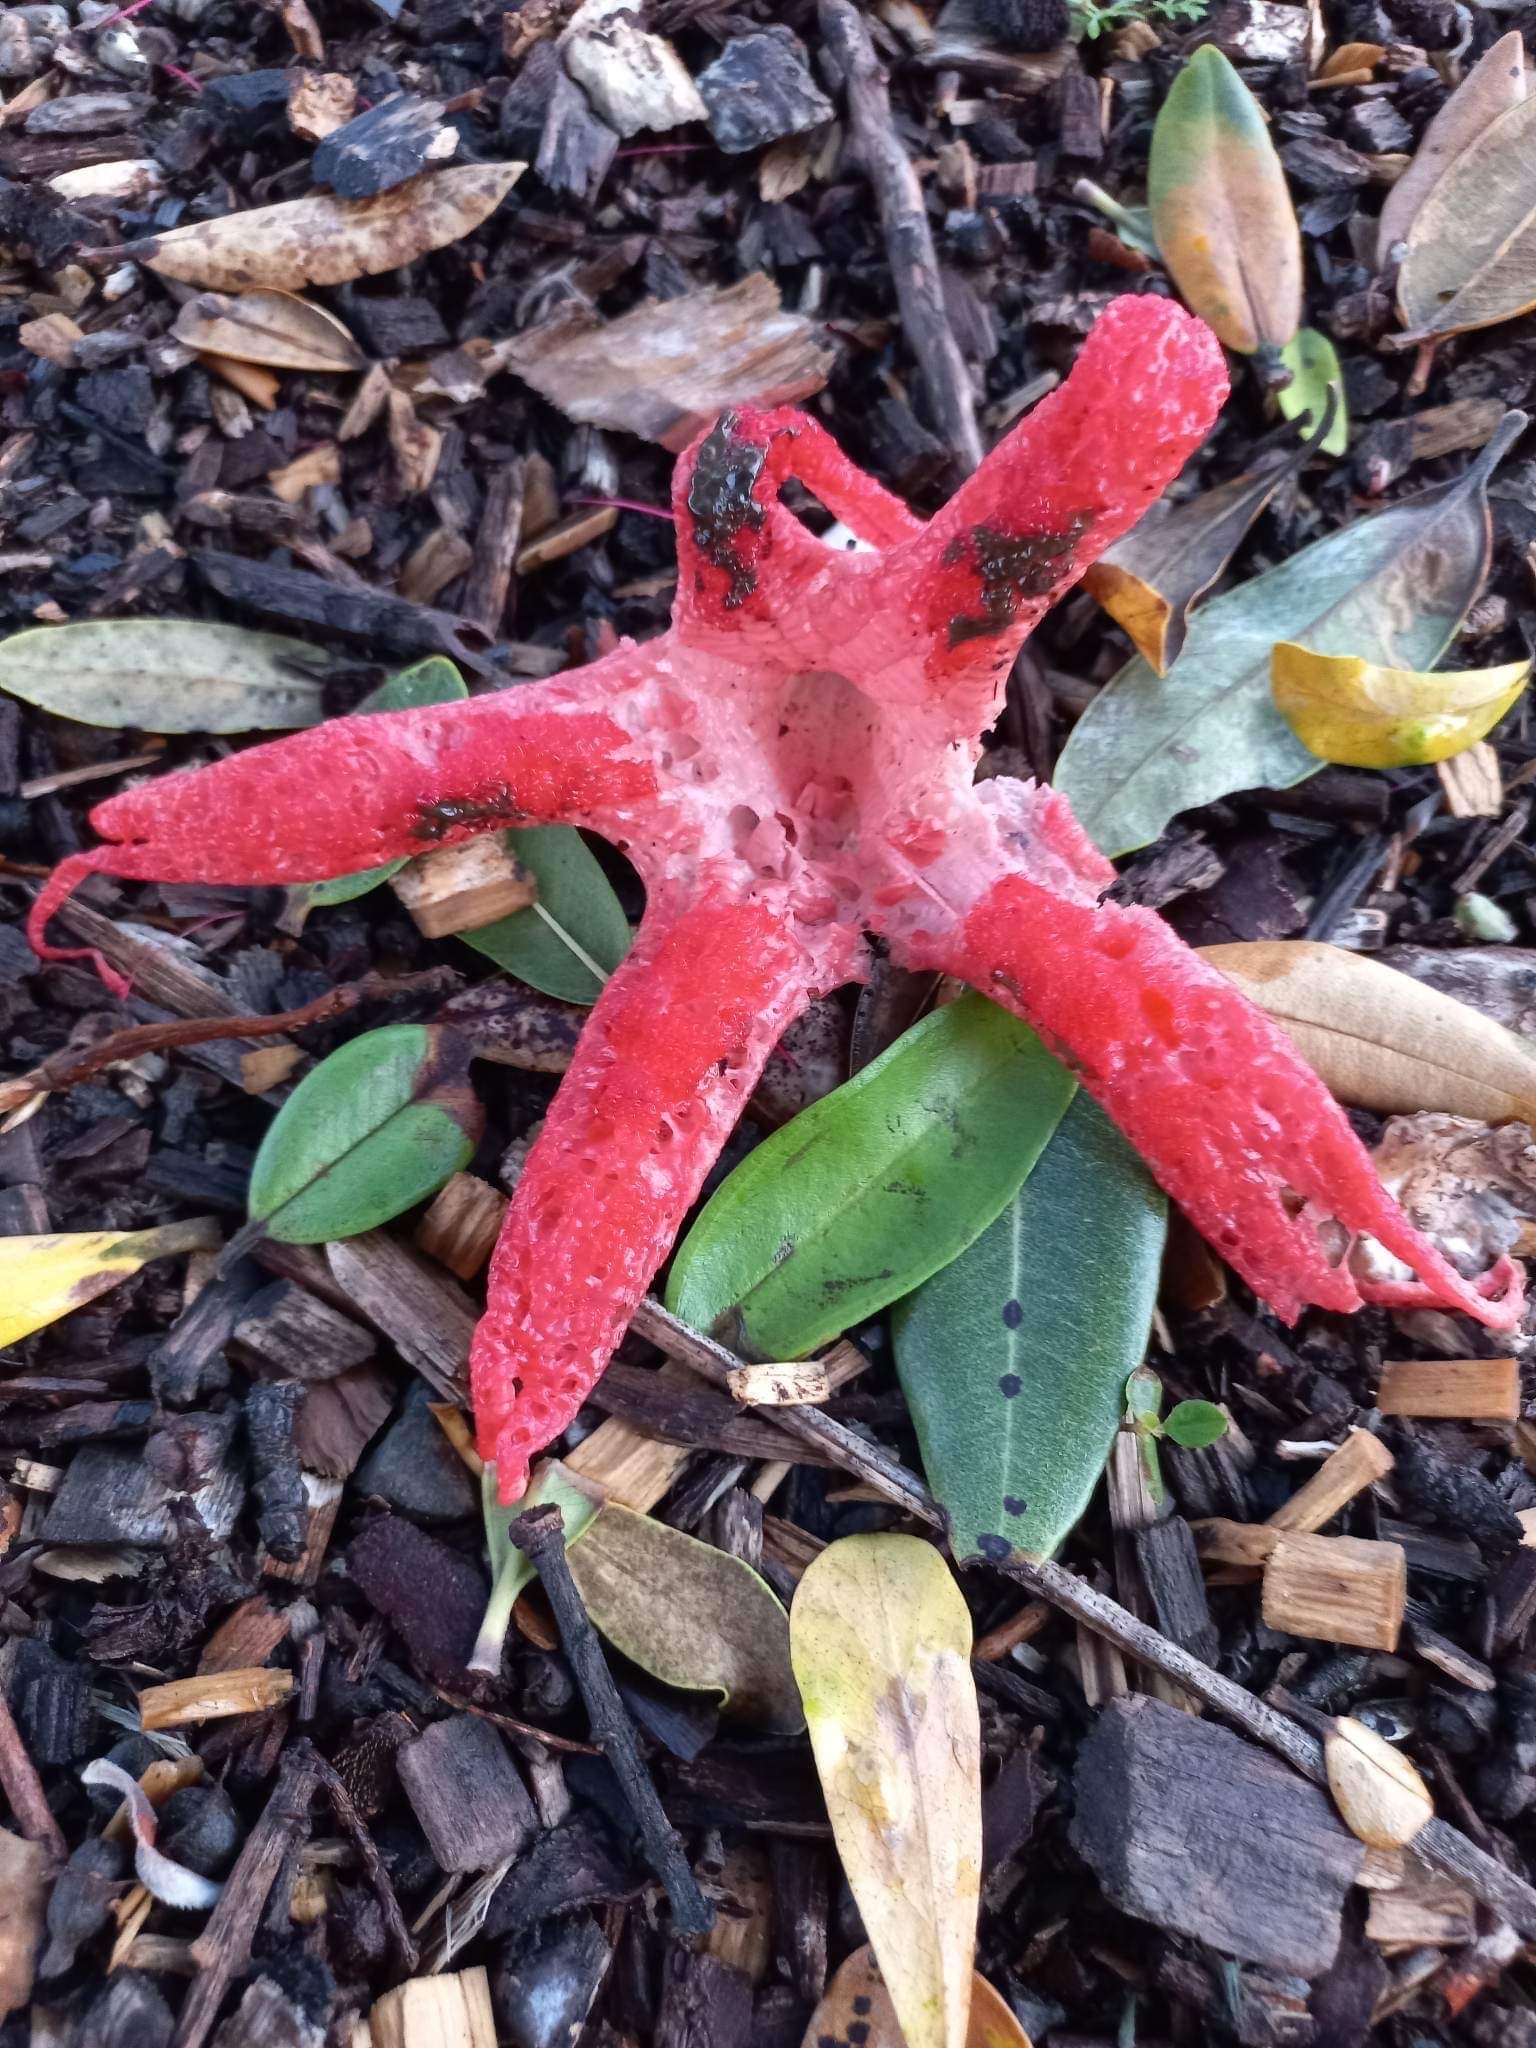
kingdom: Fungi
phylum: Basidiomycota
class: Agaricomycetes
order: Phallales
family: Phallaceae
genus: Clathrus
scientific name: Clathrus archeri
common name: Devil's fingers
